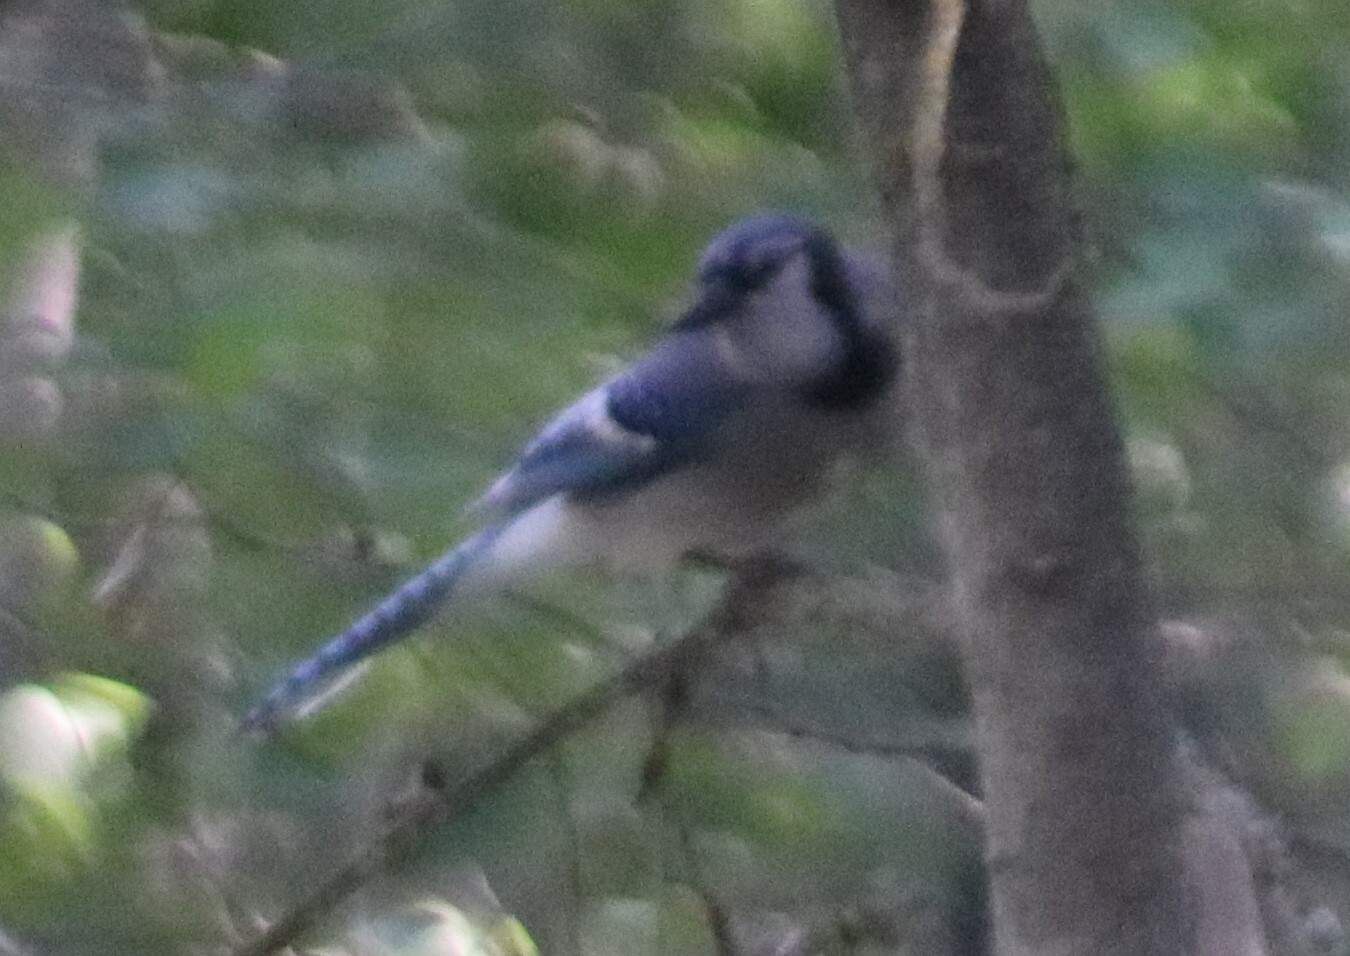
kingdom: Animalia
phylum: Chordata
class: Aves
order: Passeriformes
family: Corvidae
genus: Cyanocitta
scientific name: Cyanocitta cristata
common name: Blue jay
